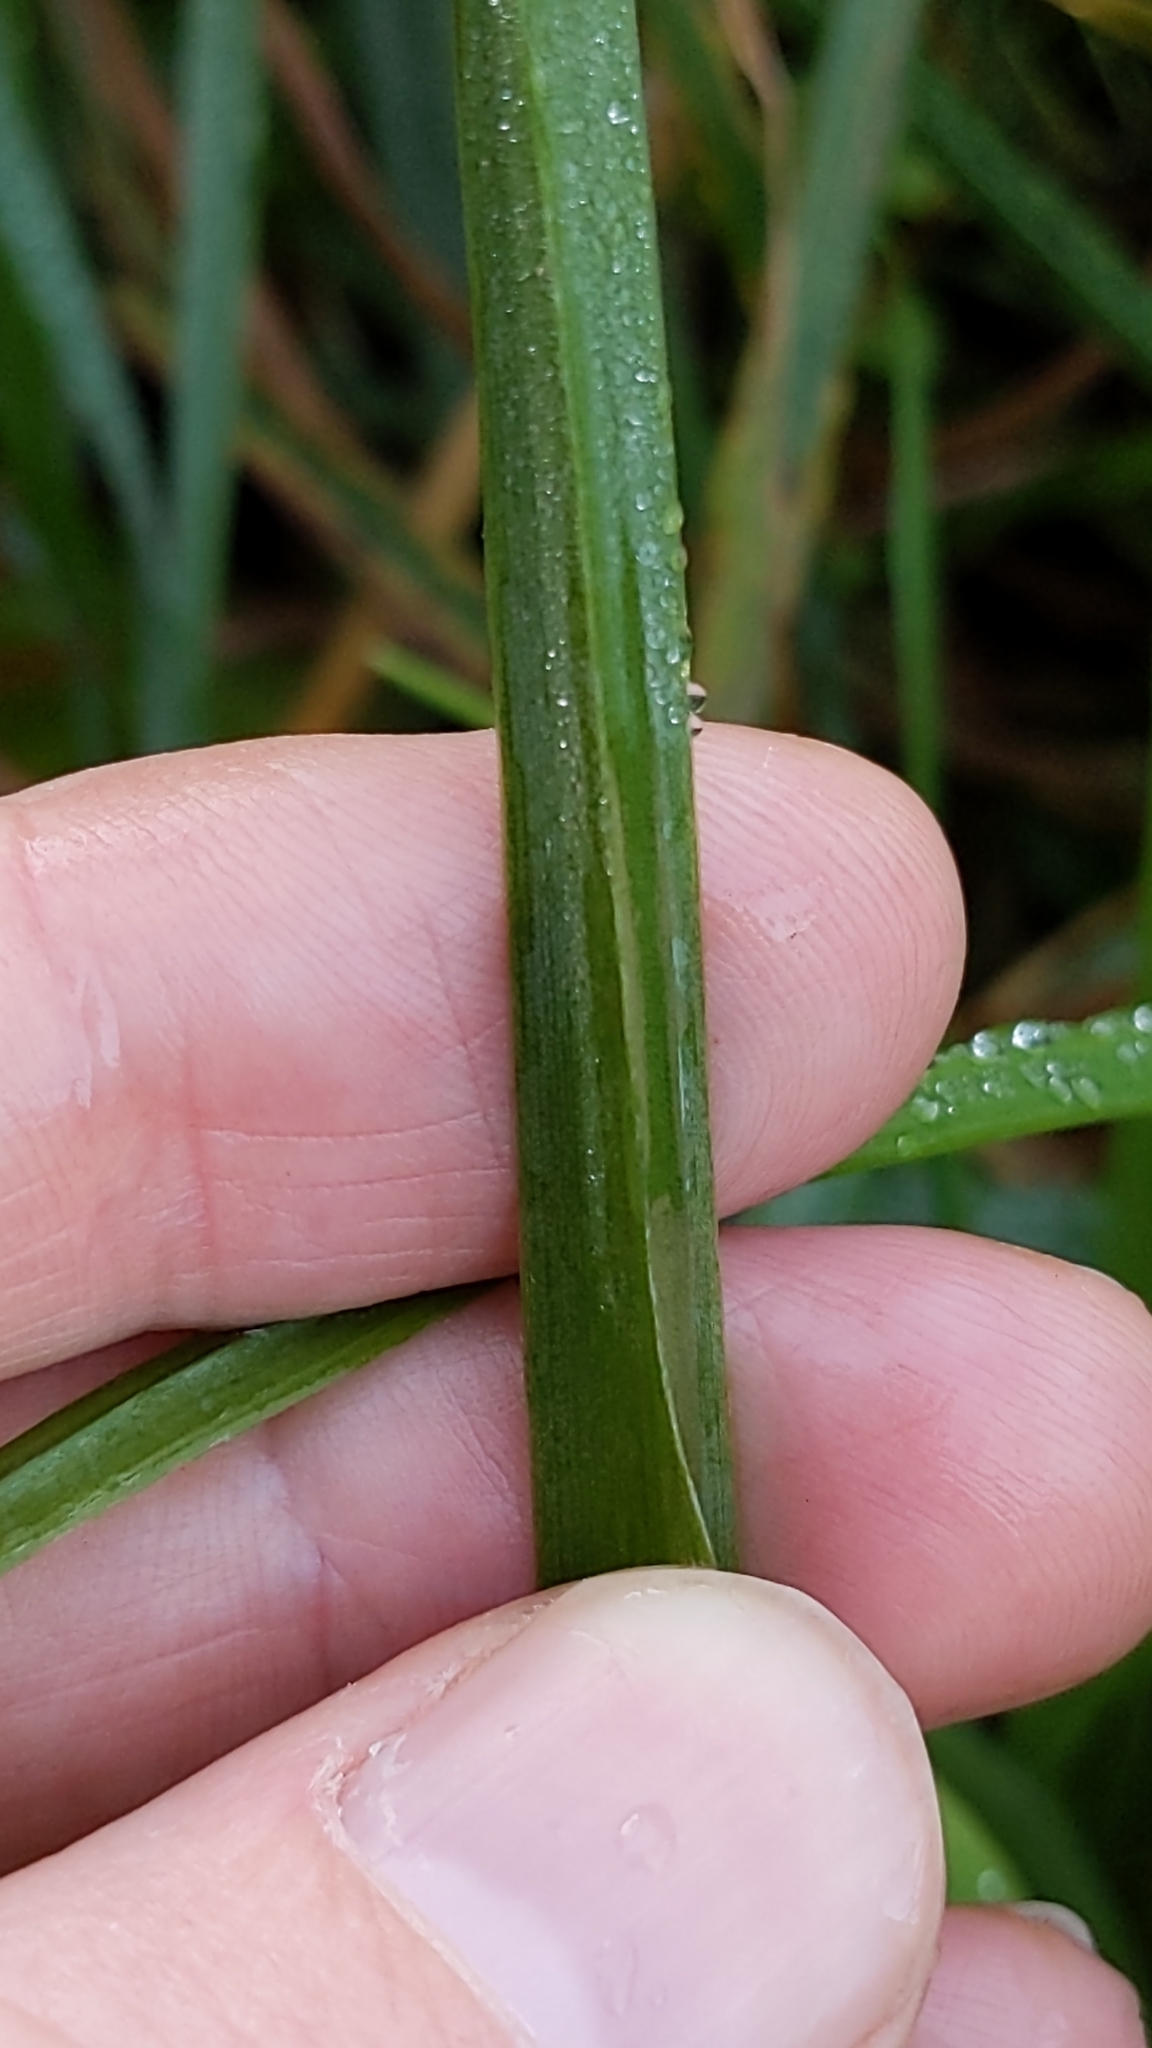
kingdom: Plantae
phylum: Tracheophyta
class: Liliopsida
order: Asparagales
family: Amaryllidaceae
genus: Allium
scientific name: Allium triquetrum
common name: Three-cornered garlic
